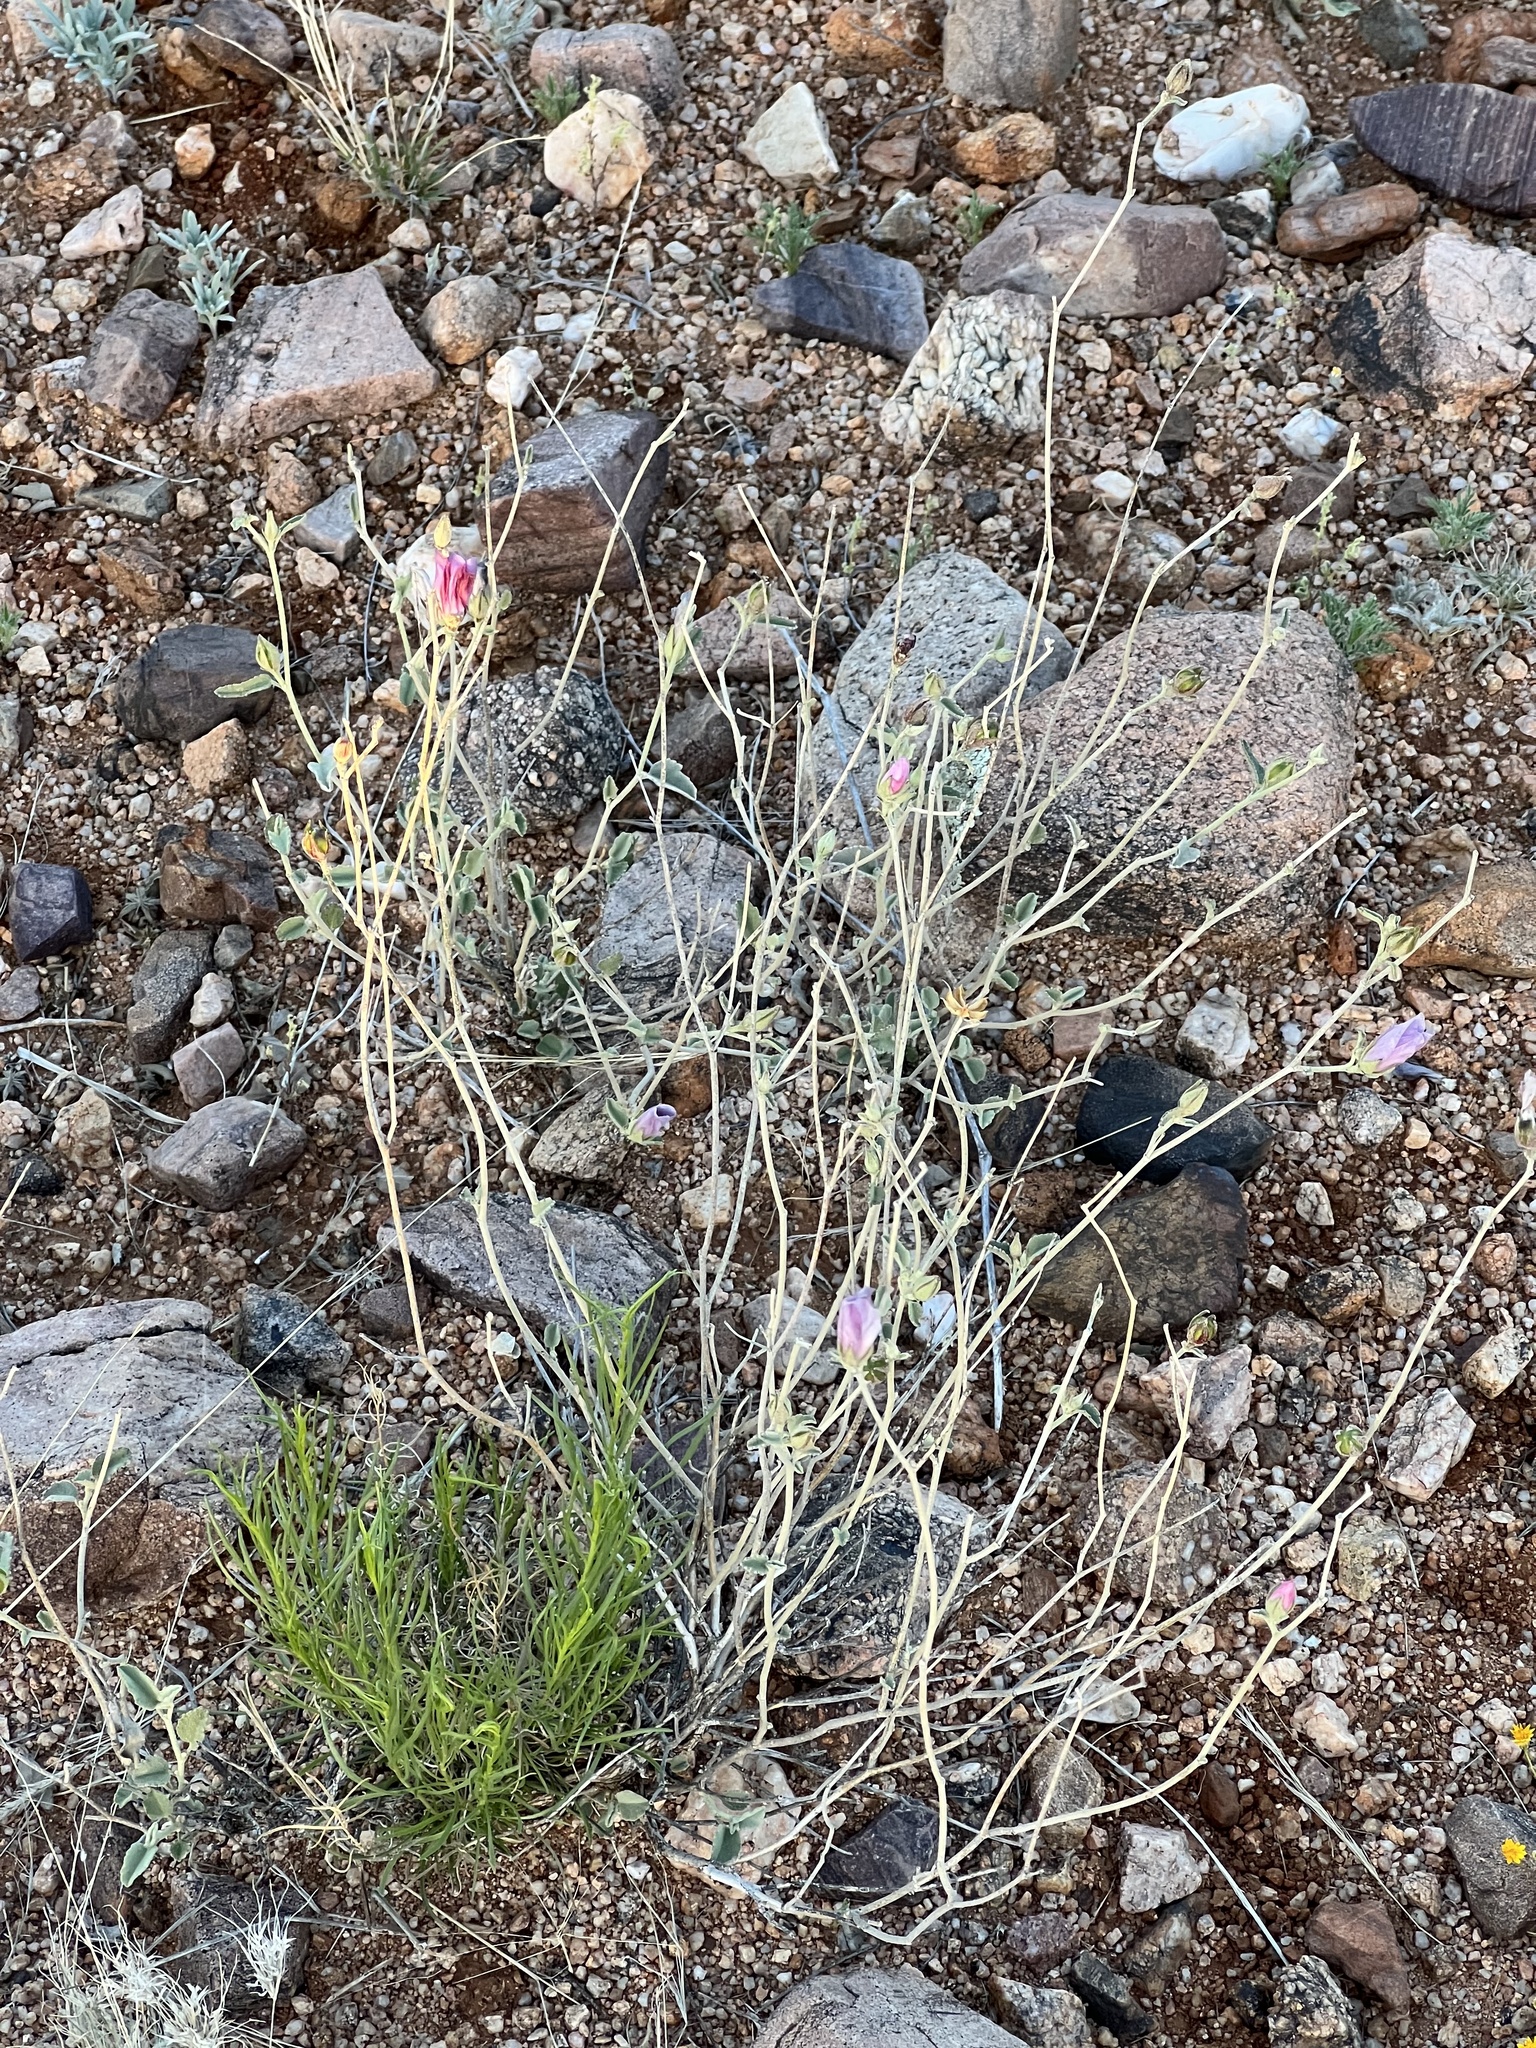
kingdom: Plantae
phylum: Tracheophyta
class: Magnoliopsida
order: Malvales
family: Malvaceae
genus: Hibiscus
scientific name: Hibiscus denudatus
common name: Paleface
